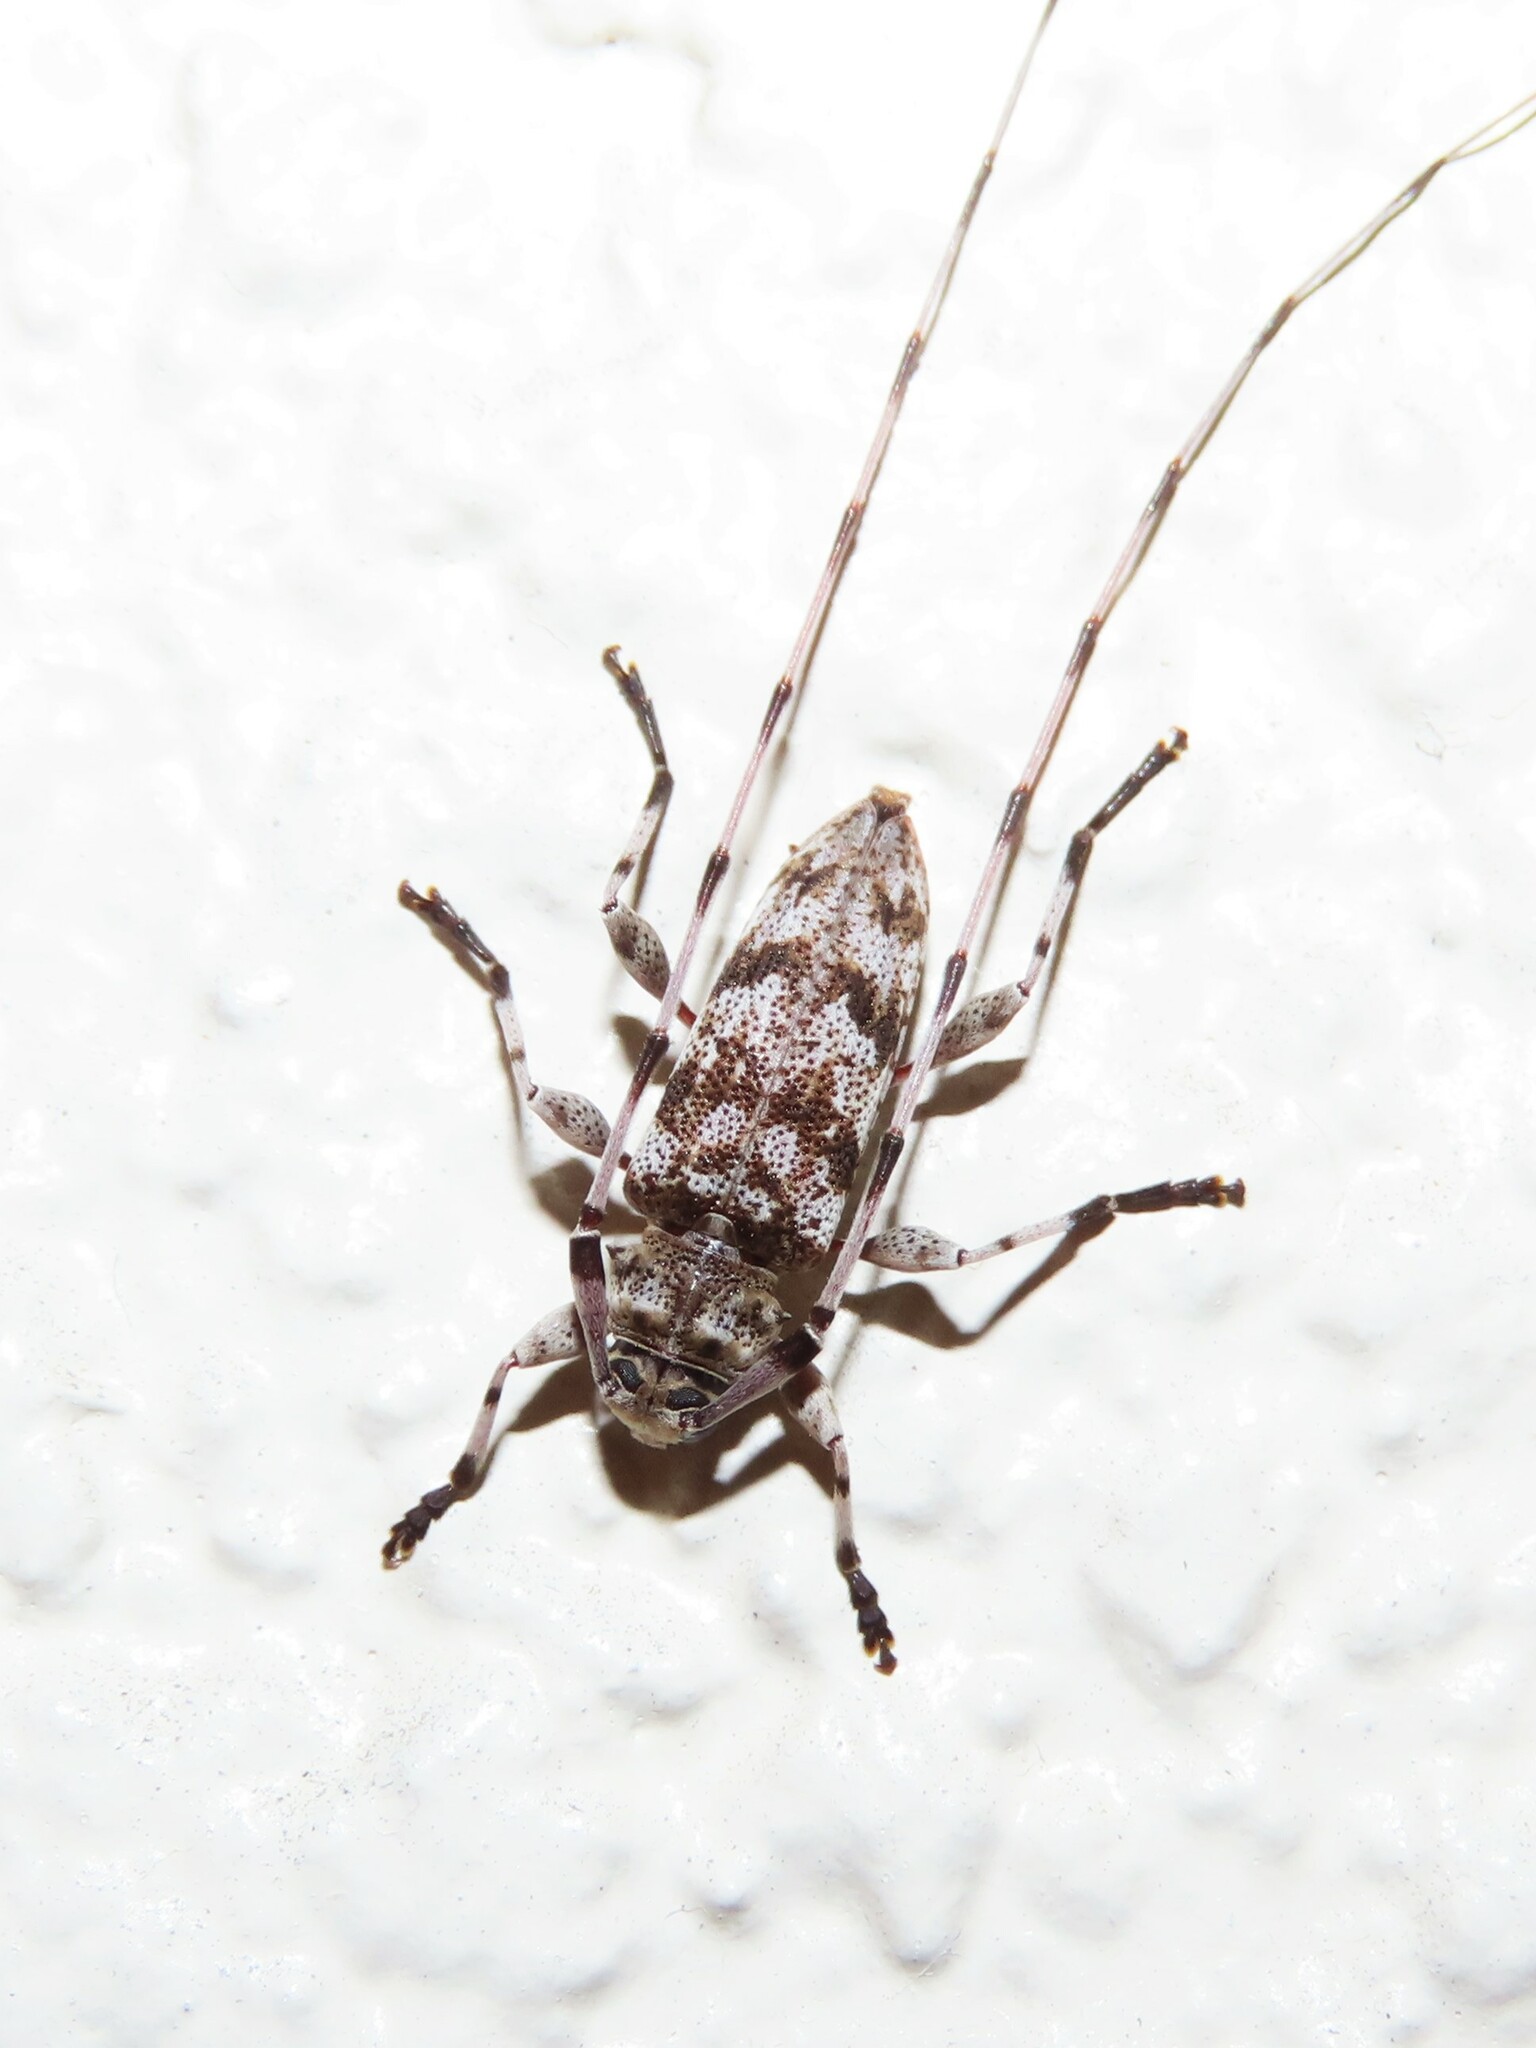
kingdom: Animalia
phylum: Arthropoda
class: Insecta
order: Coleoptera
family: Cerambycidae
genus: Acanthocinus
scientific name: Acanthocinus obsoletus
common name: Roundheaded borer
